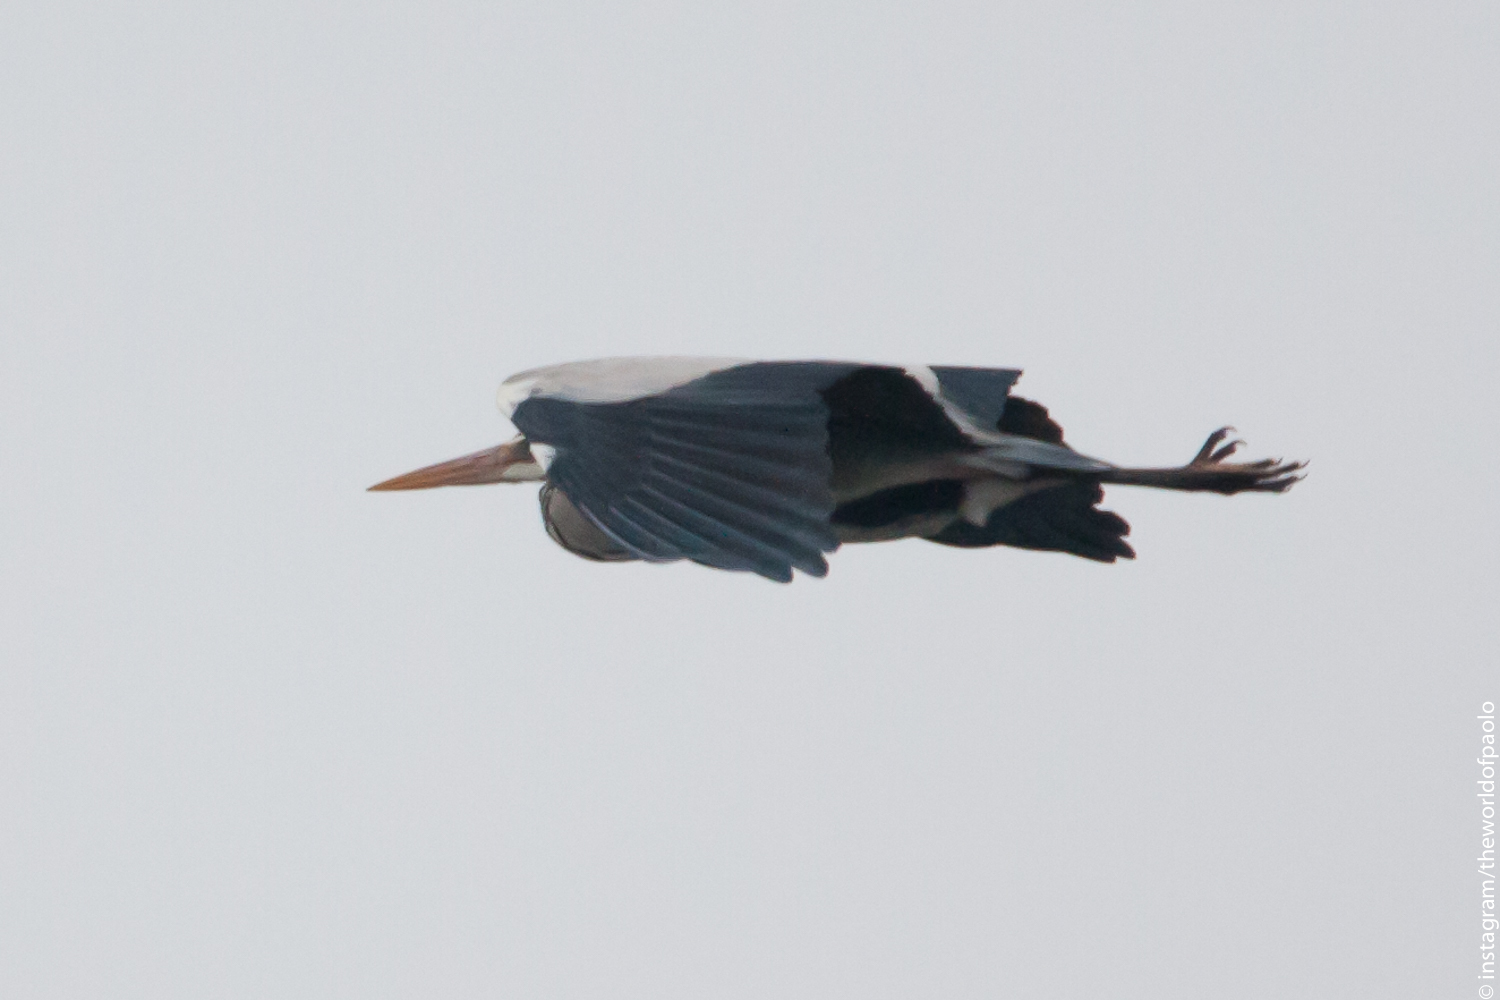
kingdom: Animalia
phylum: Chordata
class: Aves
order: Pelecaniformes
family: Ardeidae
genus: Ardea
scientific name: Ardea cinerea
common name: Grey heron
